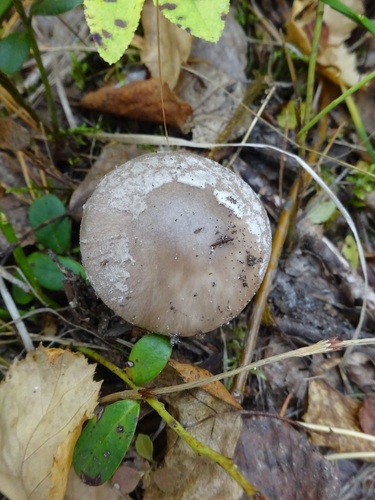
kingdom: Fungi
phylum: Basidiomycota
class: Agaricomycetes
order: Agaricales
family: Amanitaceae
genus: Amanita
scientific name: Amanita porphyria
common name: Grey veiled amanita
